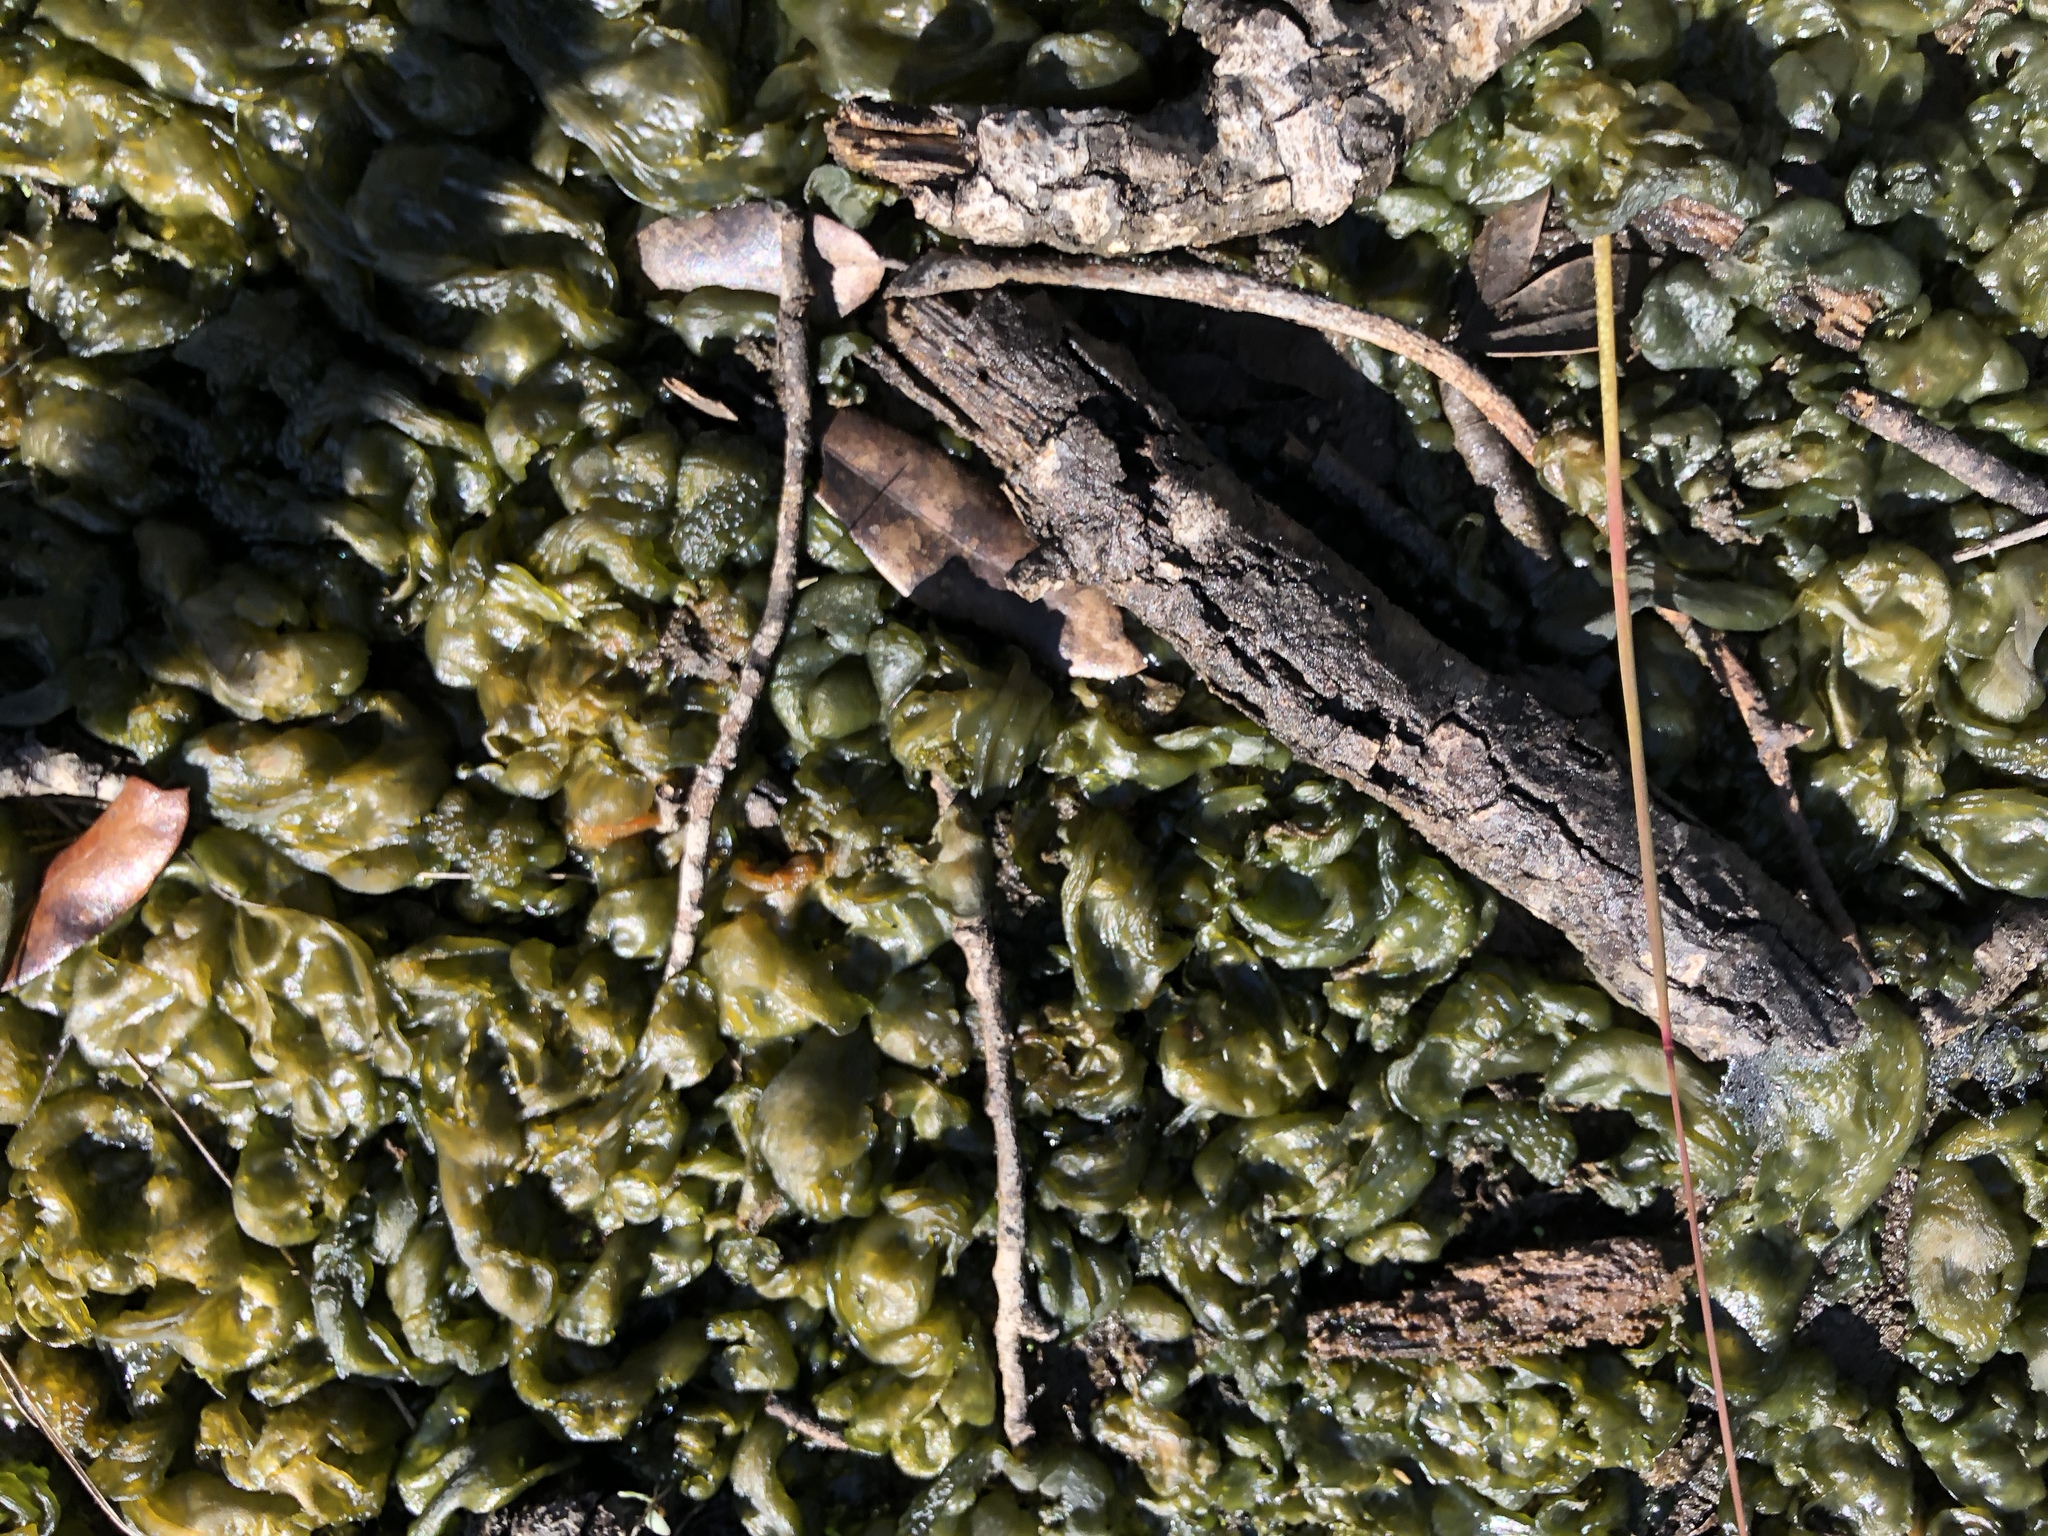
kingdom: Bacteria
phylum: Cyanobacteria
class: Cyanobacteriia
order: Cyanobacteriales
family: Nostocaceae
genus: Nostoc
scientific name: Nostoc commune
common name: Star jelly
